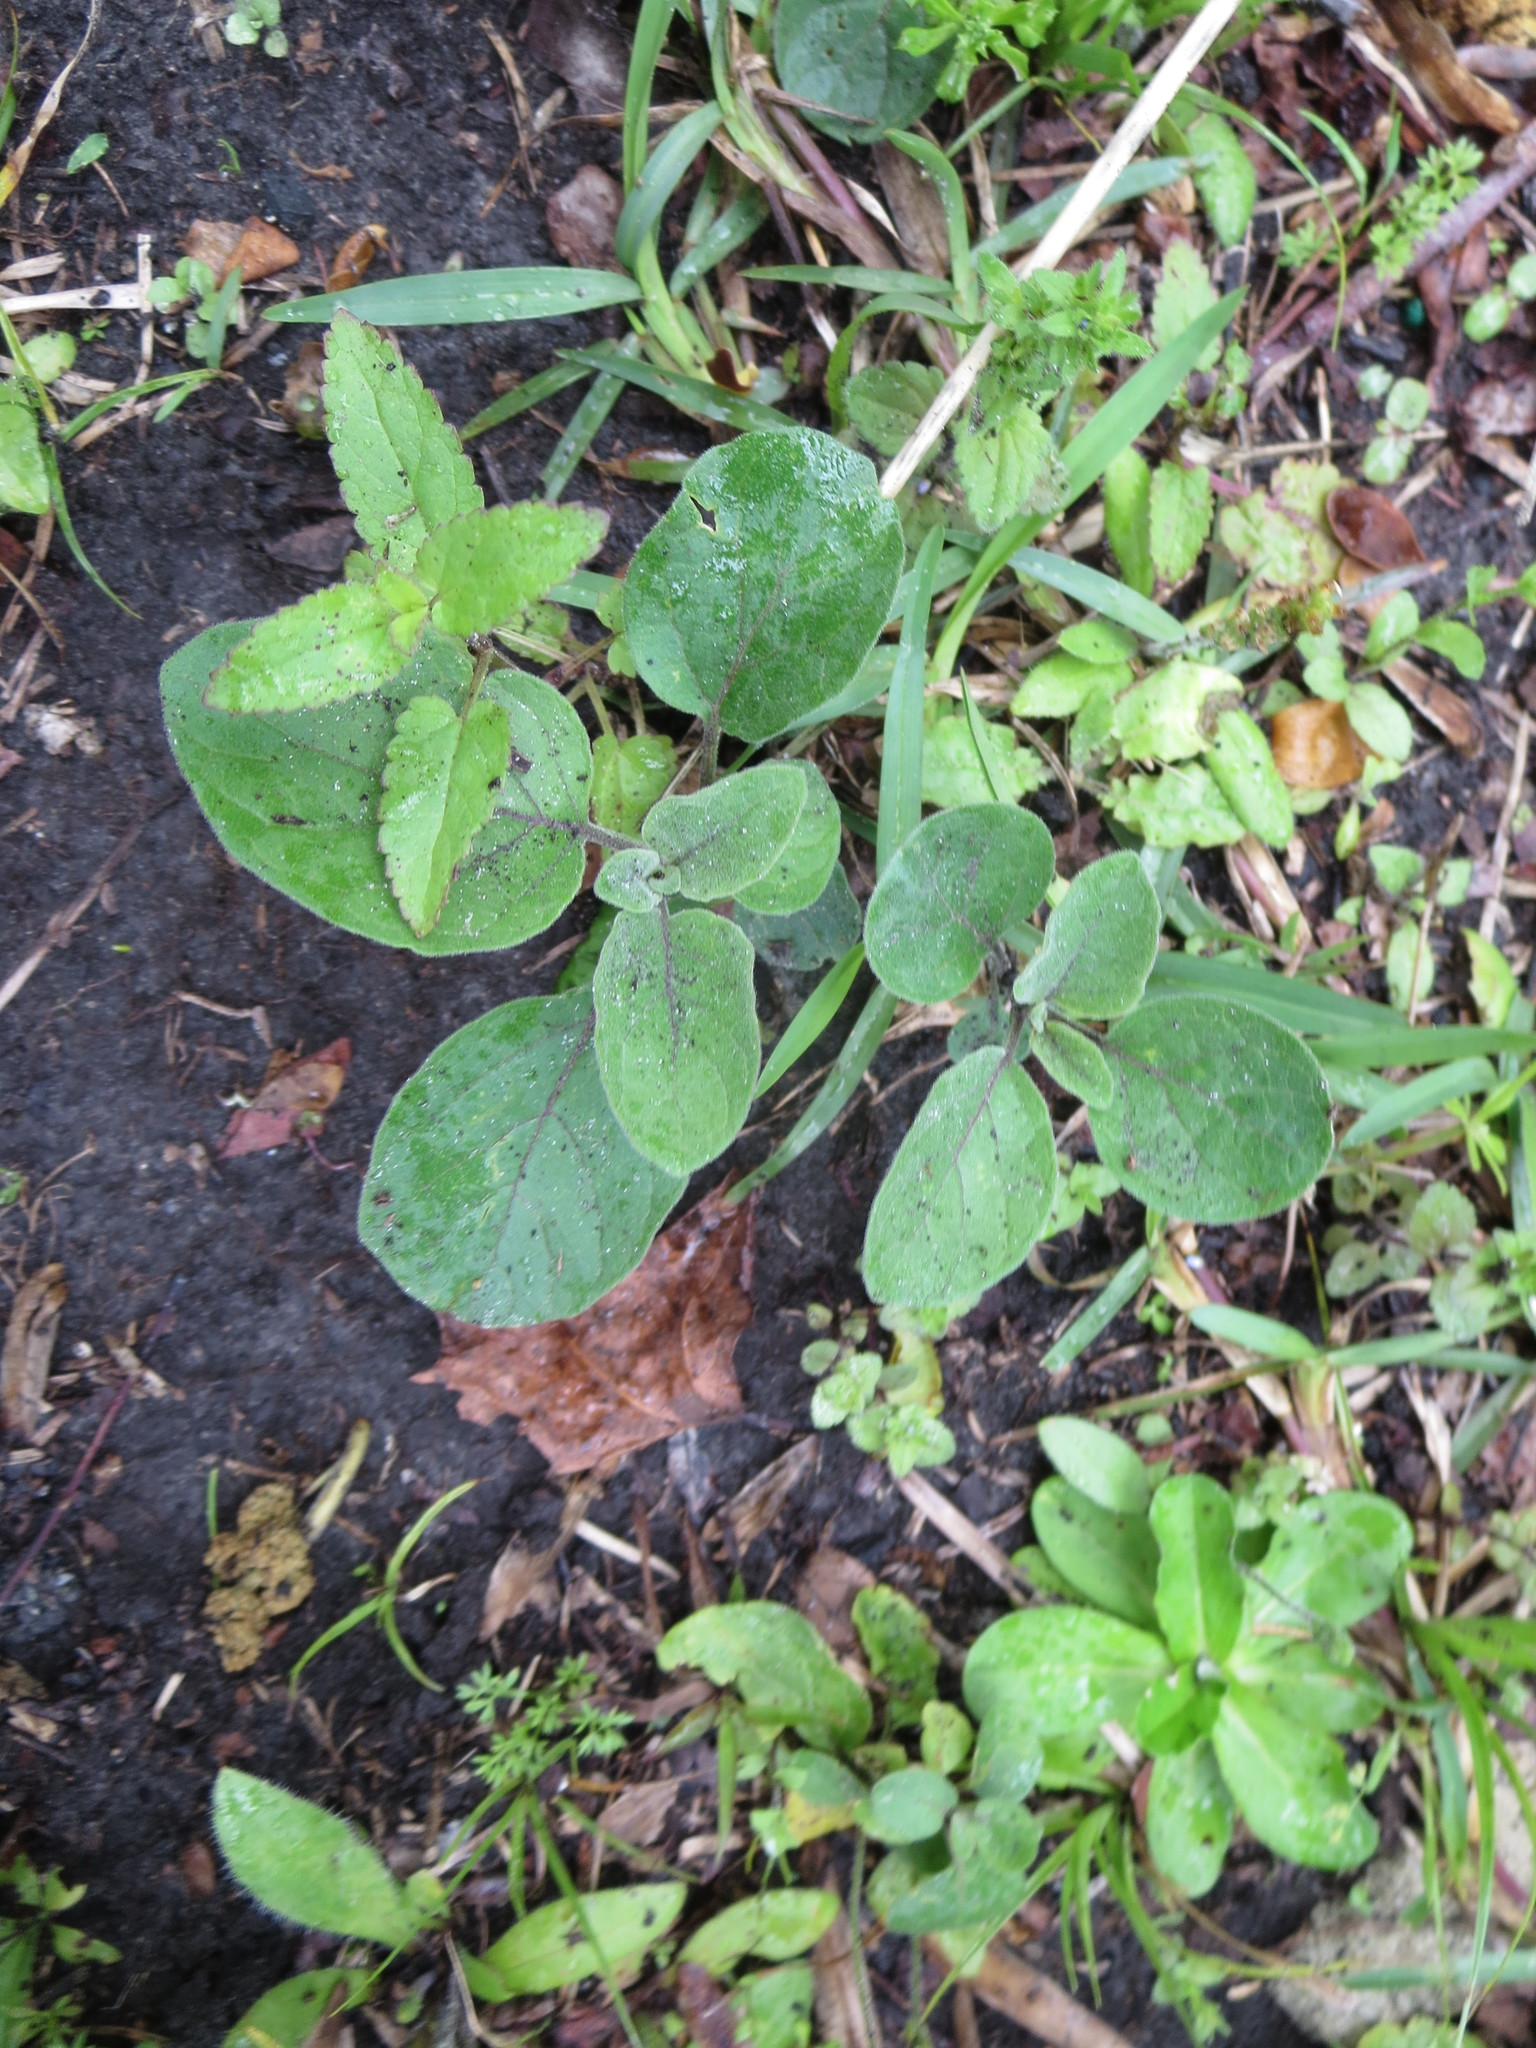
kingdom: Plantae
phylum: Tracheophyta
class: Magnoliopsida
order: Solanales
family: Solanaceae
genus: Physalis
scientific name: Physalis walteri
